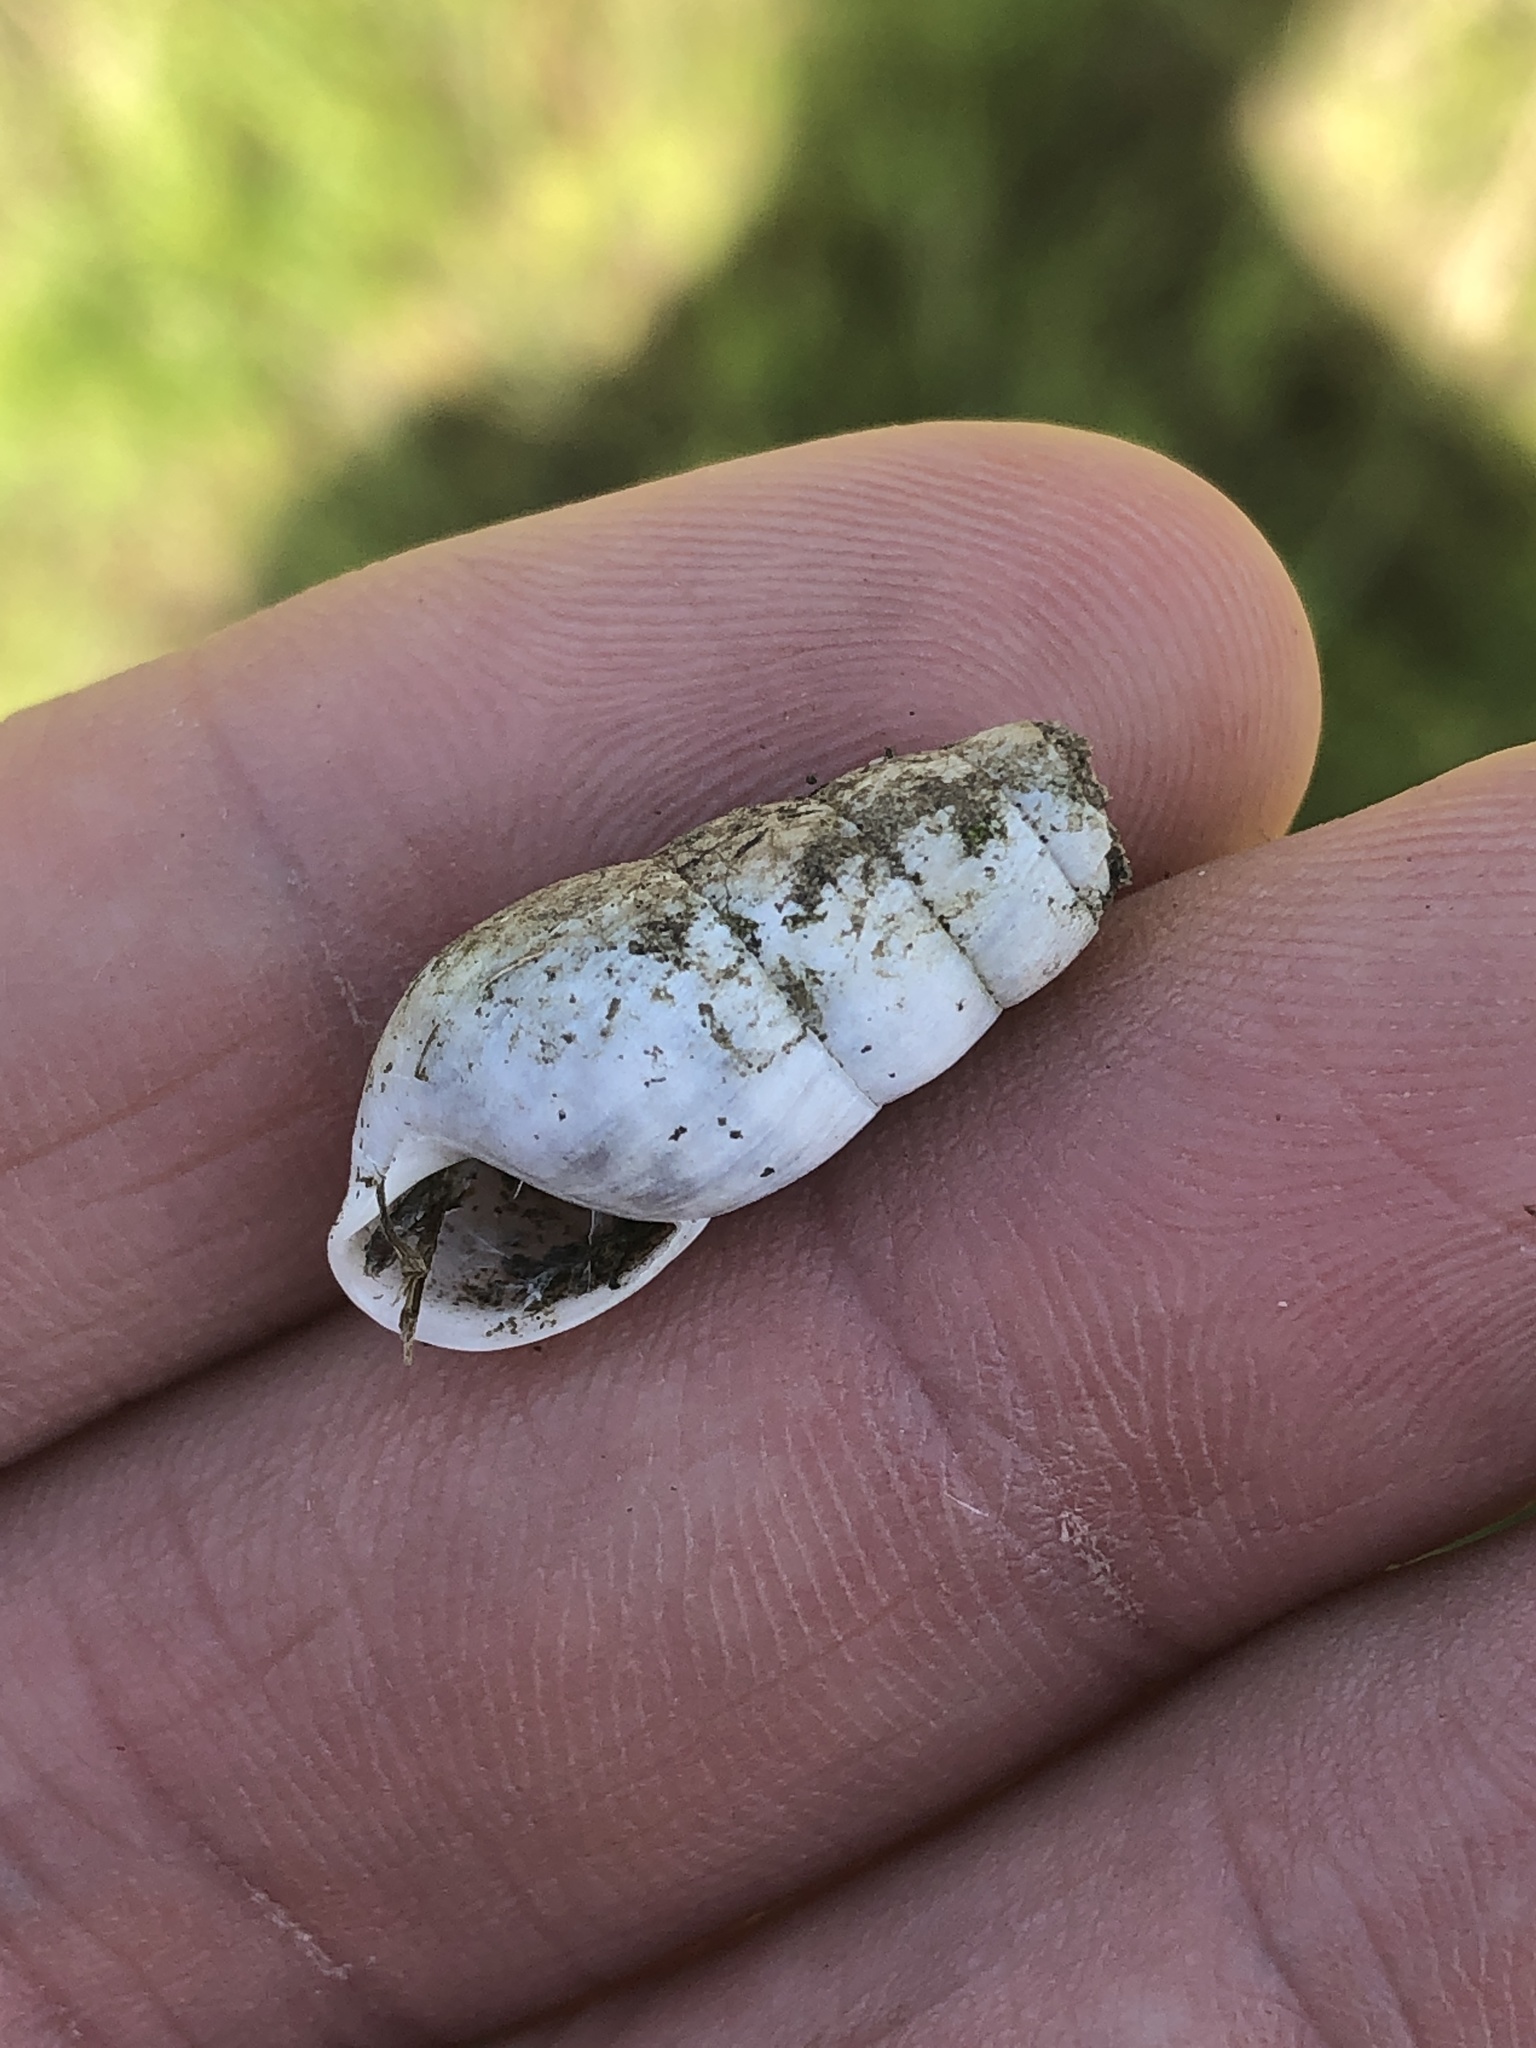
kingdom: Animalia
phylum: Mollusca
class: Gastropoda
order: Stylommatophora
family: Achatinidae
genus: Rumina
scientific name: Rumina decollata
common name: Decollate snail
